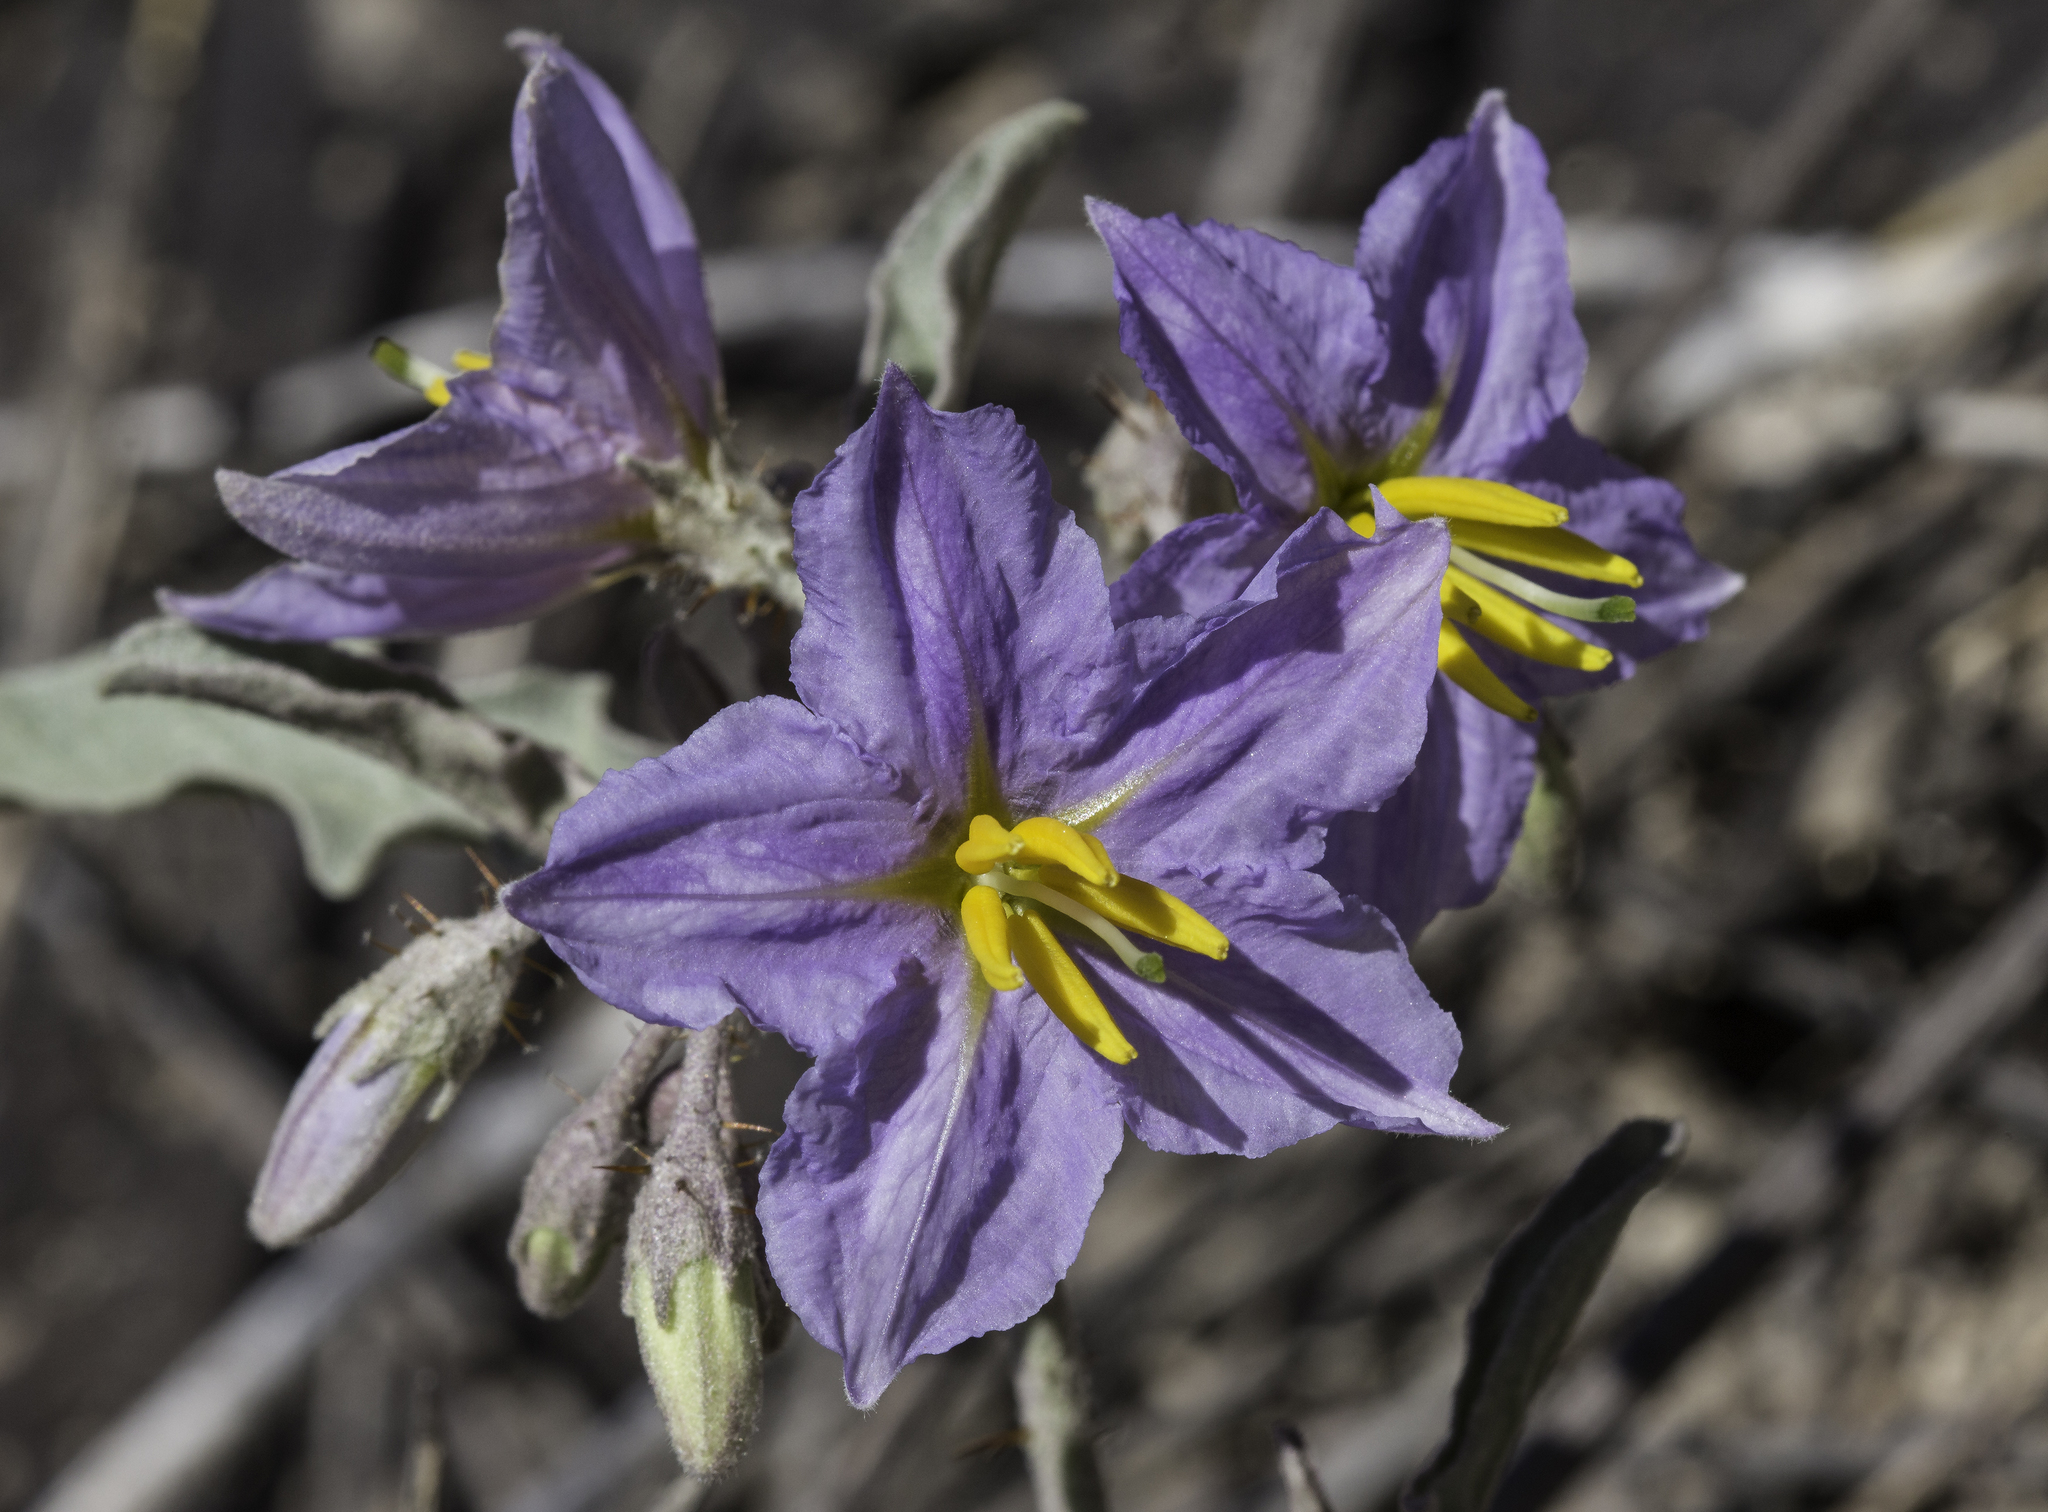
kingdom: Plantae
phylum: Tracheophyta
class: Magnoliopsida
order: Solanales
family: Solanaceae
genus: Solanum
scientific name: Solanum elaeagnifolium
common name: Silverleaf nightshade
